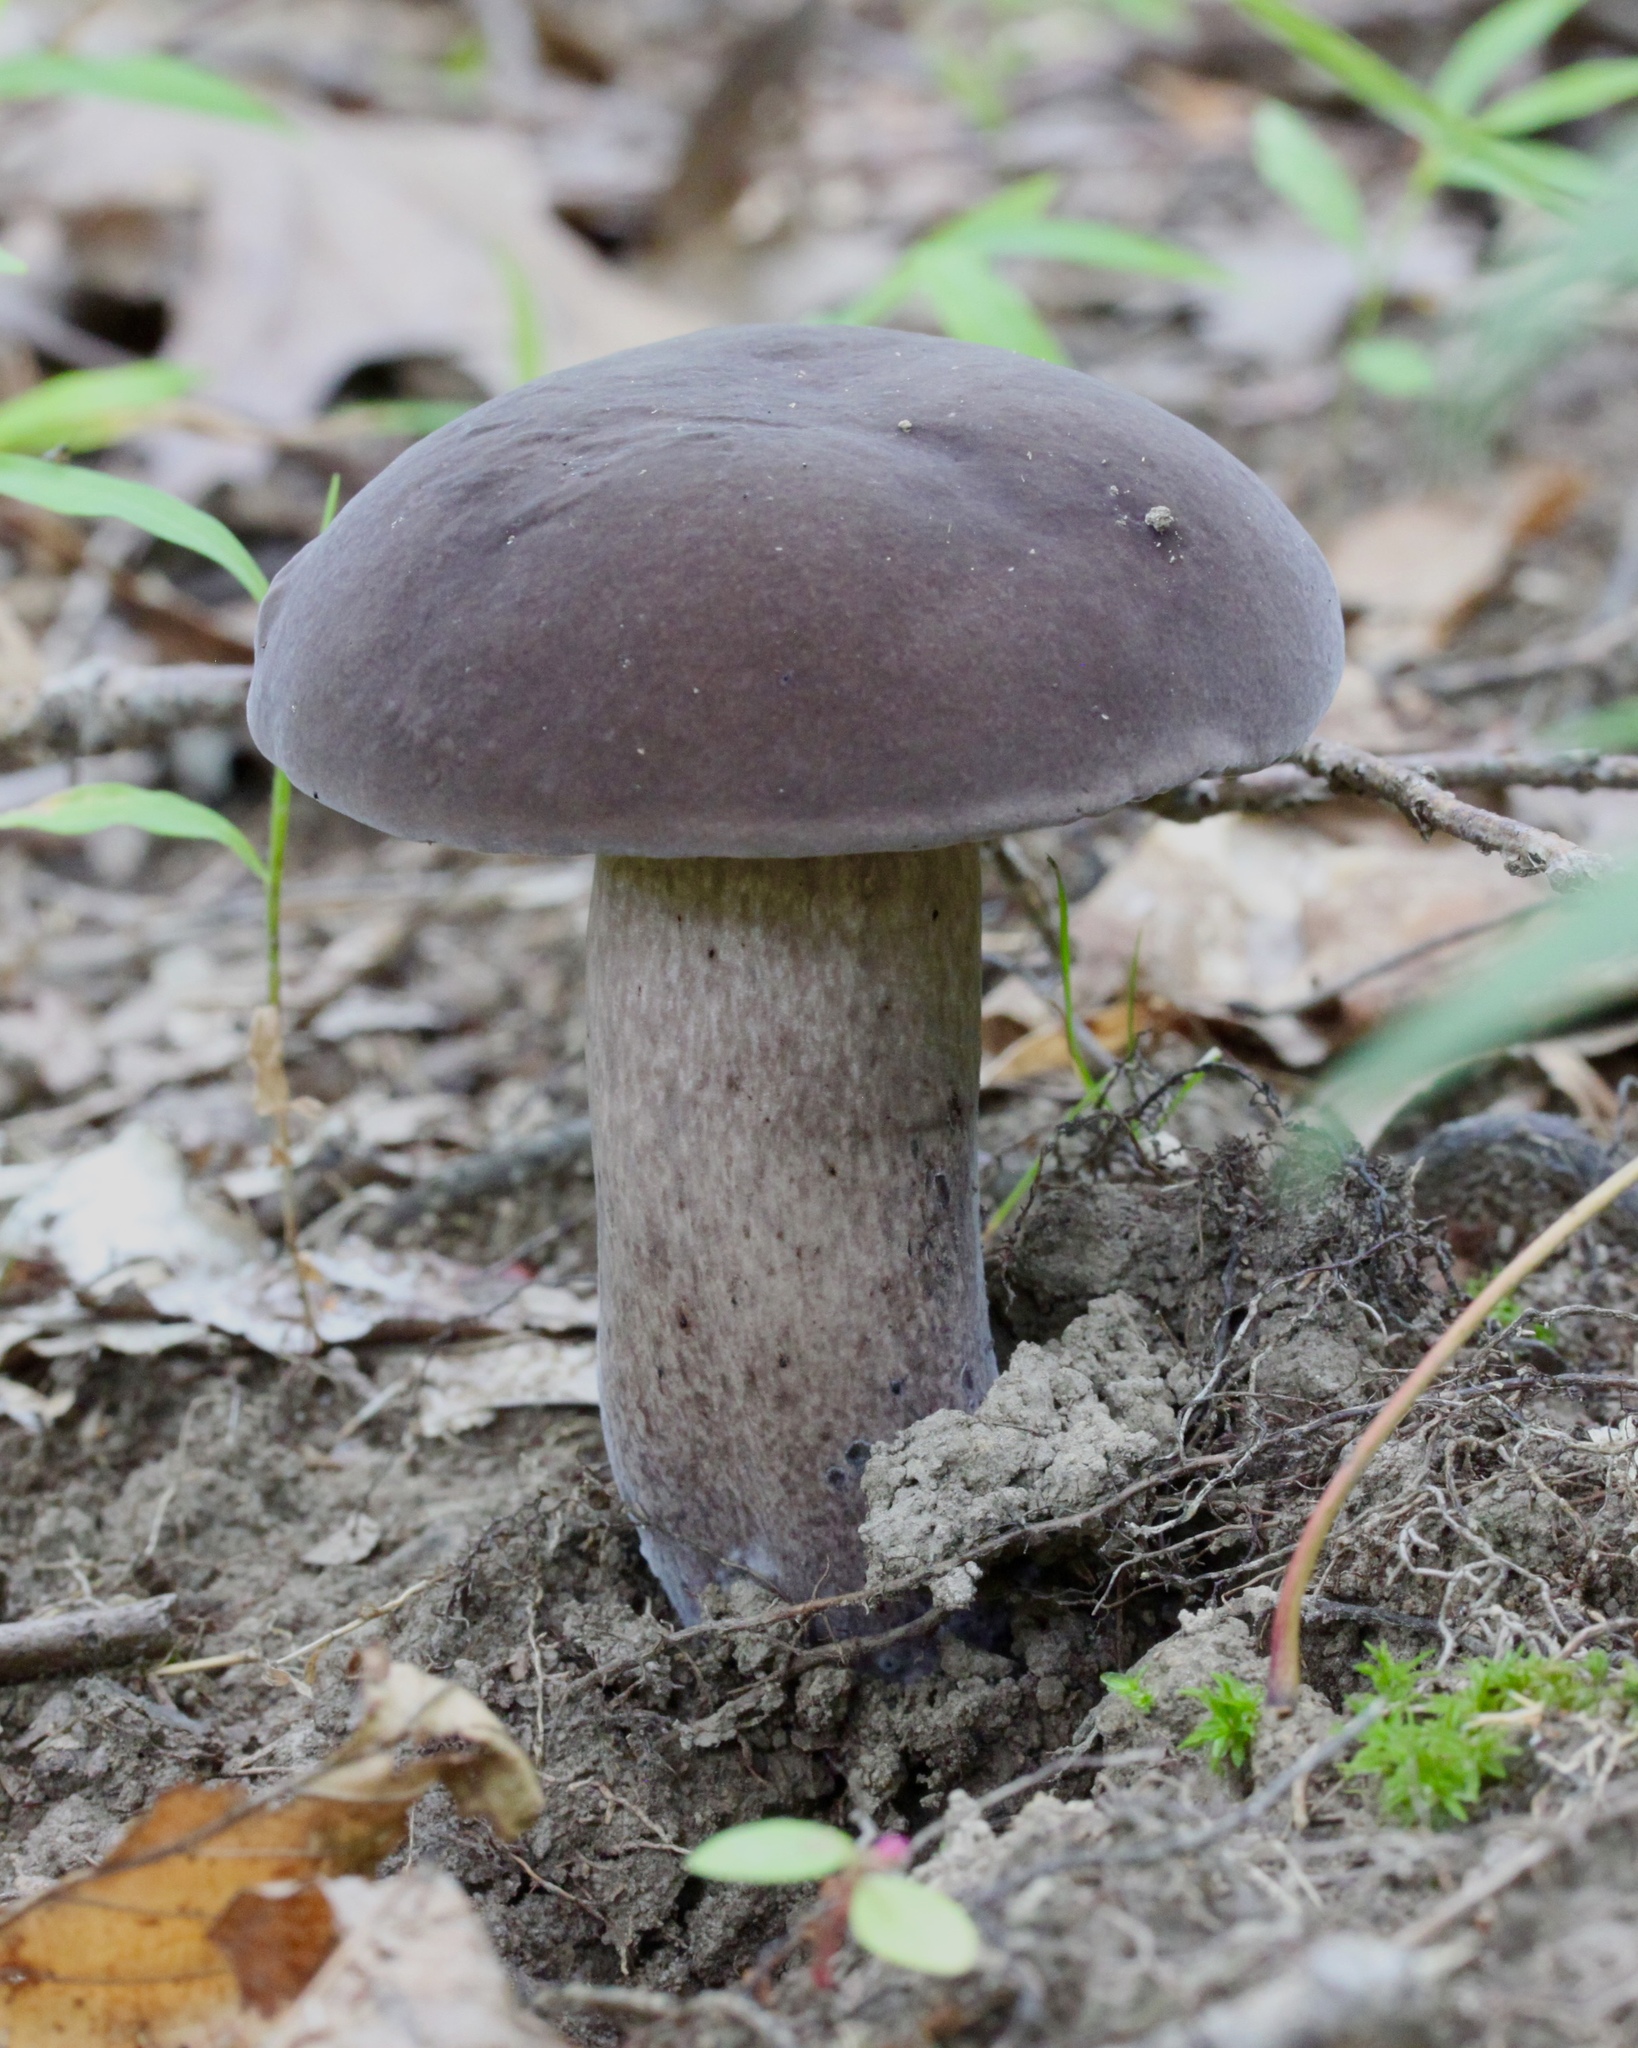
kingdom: Fungi
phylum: Basidiomycota
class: Agaricomycetes
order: Boletales
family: Boletaceae
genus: Tylopilus
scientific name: Tylopilus alboater
